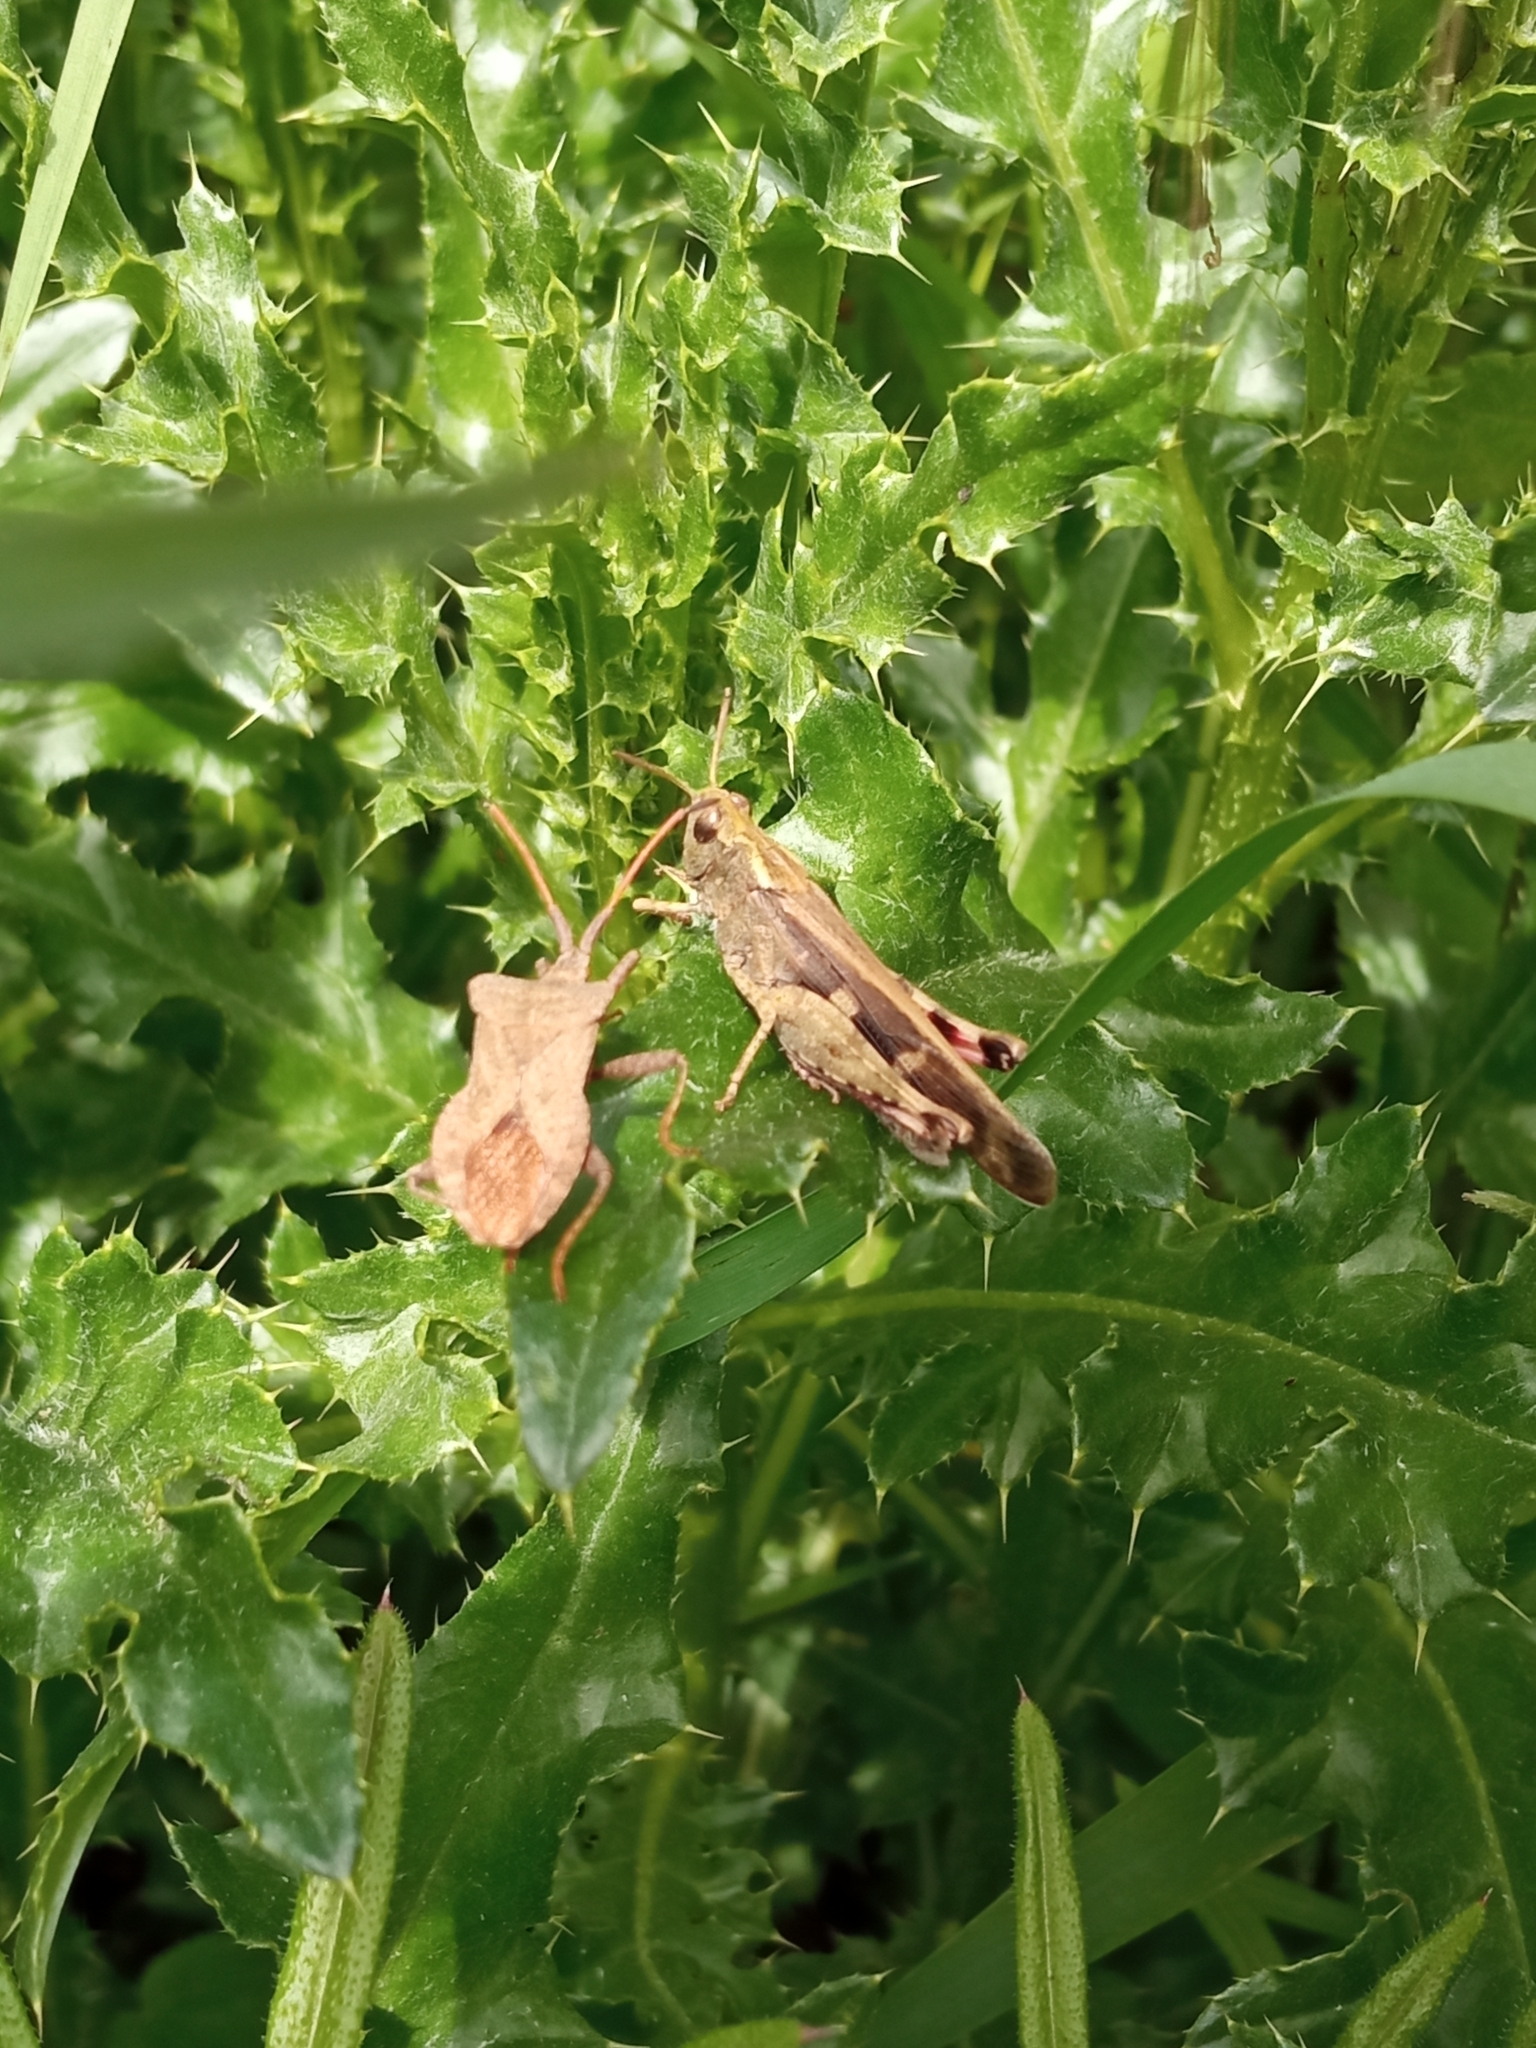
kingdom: Animalia
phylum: Arthropoda
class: Insecta
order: Orthoptera
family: Acrididae
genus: Aiolopus
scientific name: Aiolopus strepens
